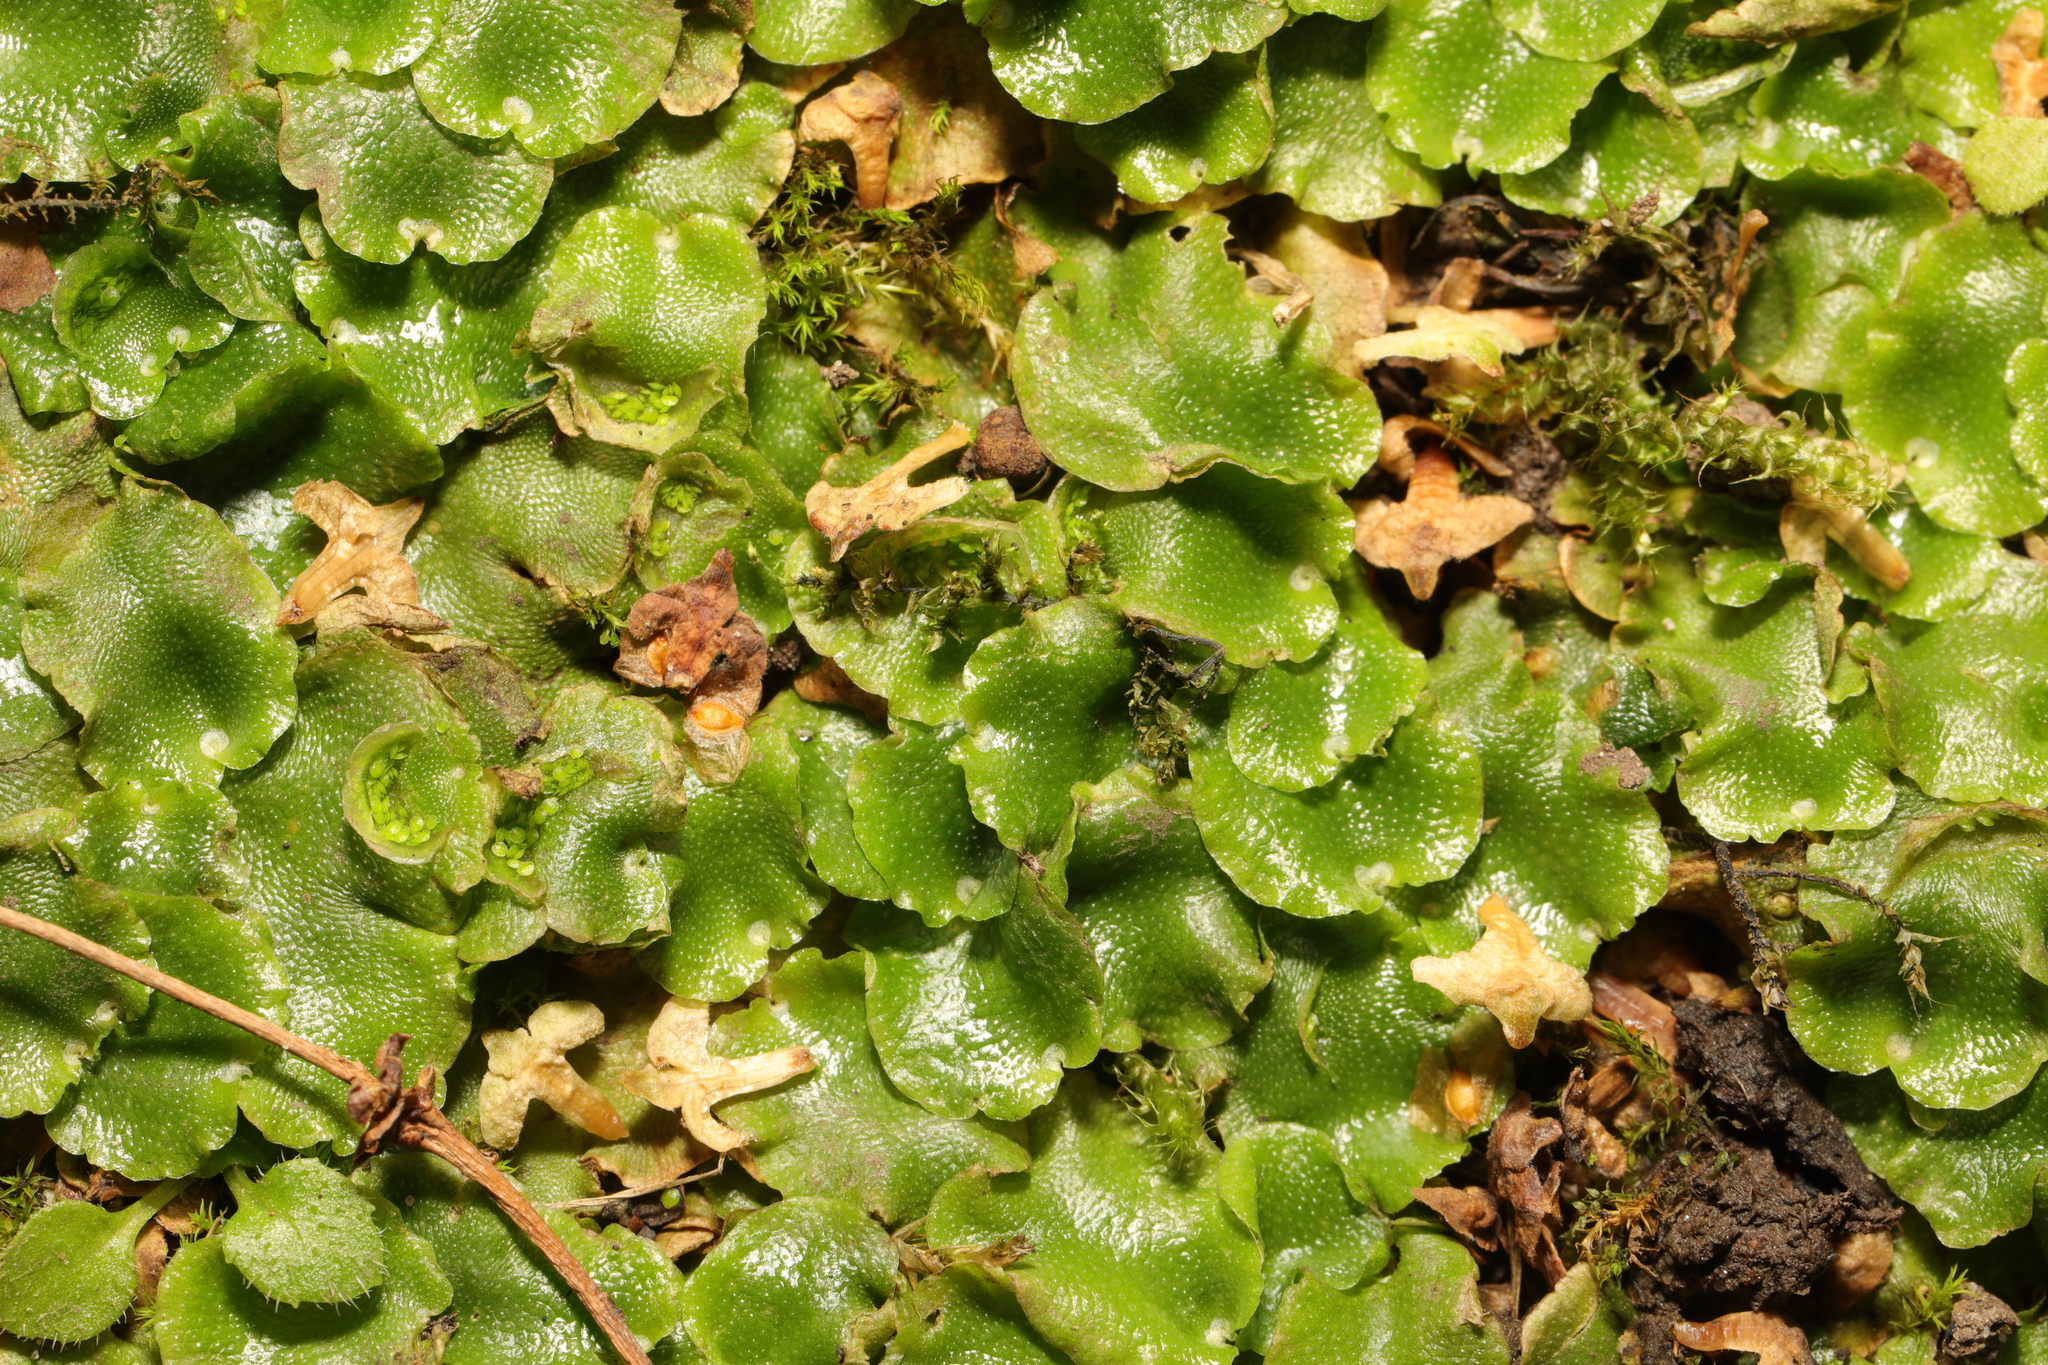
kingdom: Plantae
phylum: Marchantiophyta
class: Marchantiopsida
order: Lunulariales
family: Lunulariaceae
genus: Lunularia
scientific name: Lunularia cruciata
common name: Crescent-cup liverwort
